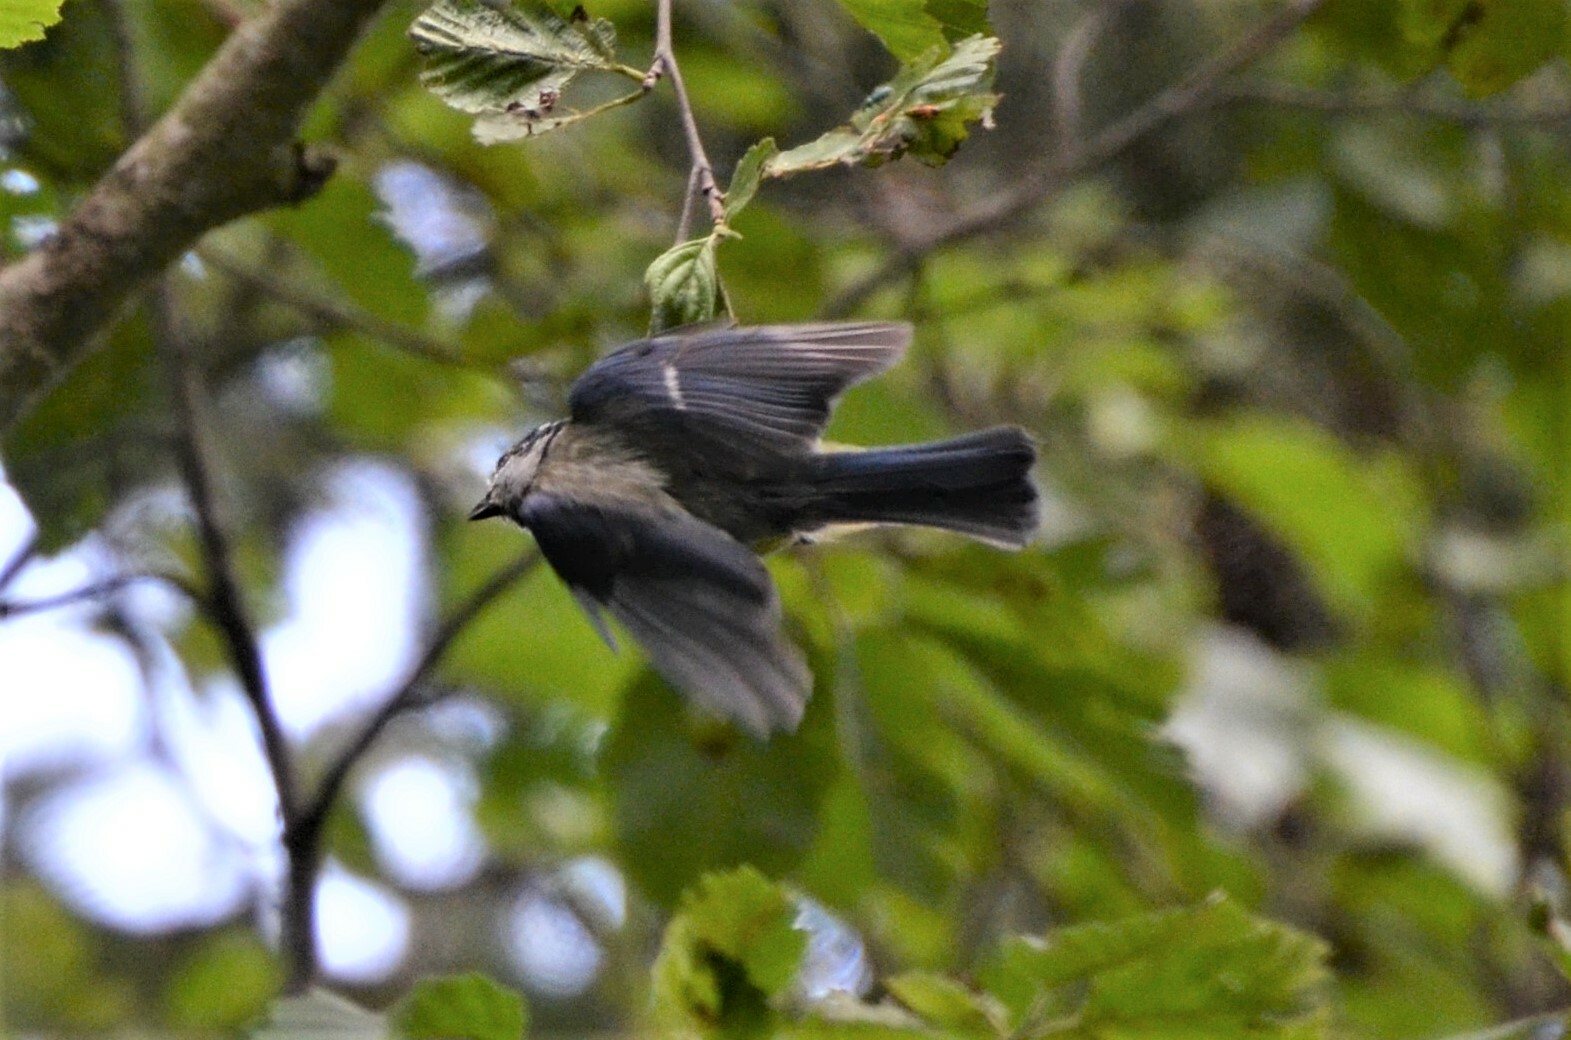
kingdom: Animalia
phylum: Chordata
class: Aves
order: Passeriformes
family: Paridae
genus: Cyanistes
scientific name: Cyanistes caeruleus
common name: Eurasian blue tit
